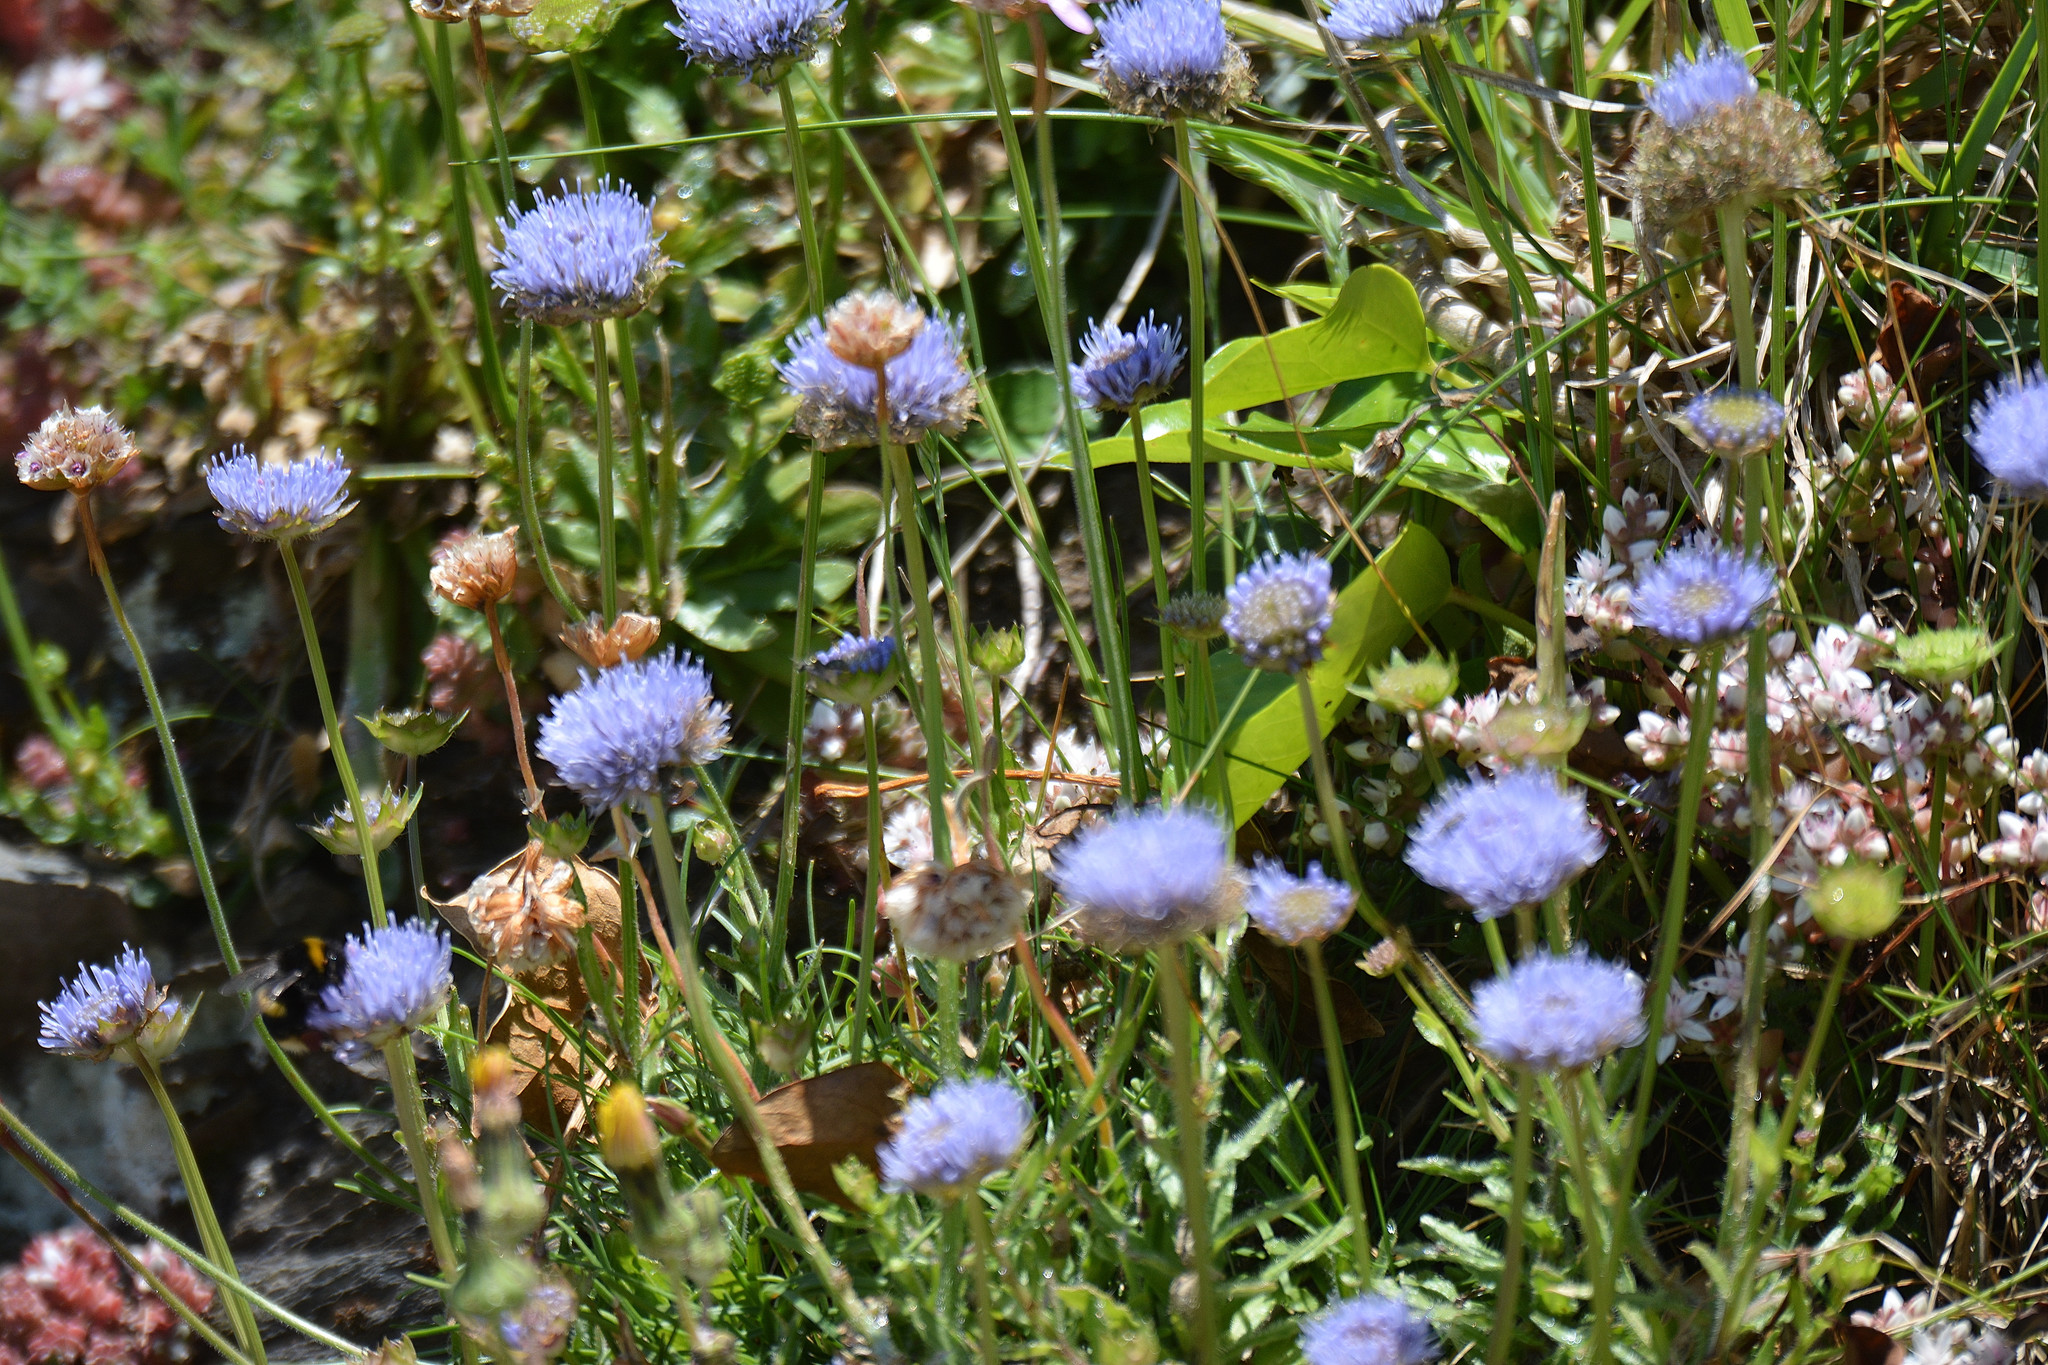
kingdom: Plantae
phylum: Tracheophyta
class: Magnoliopsida
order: Asterales
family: Campanulaceae
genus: Jasione
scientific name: Jasione montana
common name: Sheep's-bit
